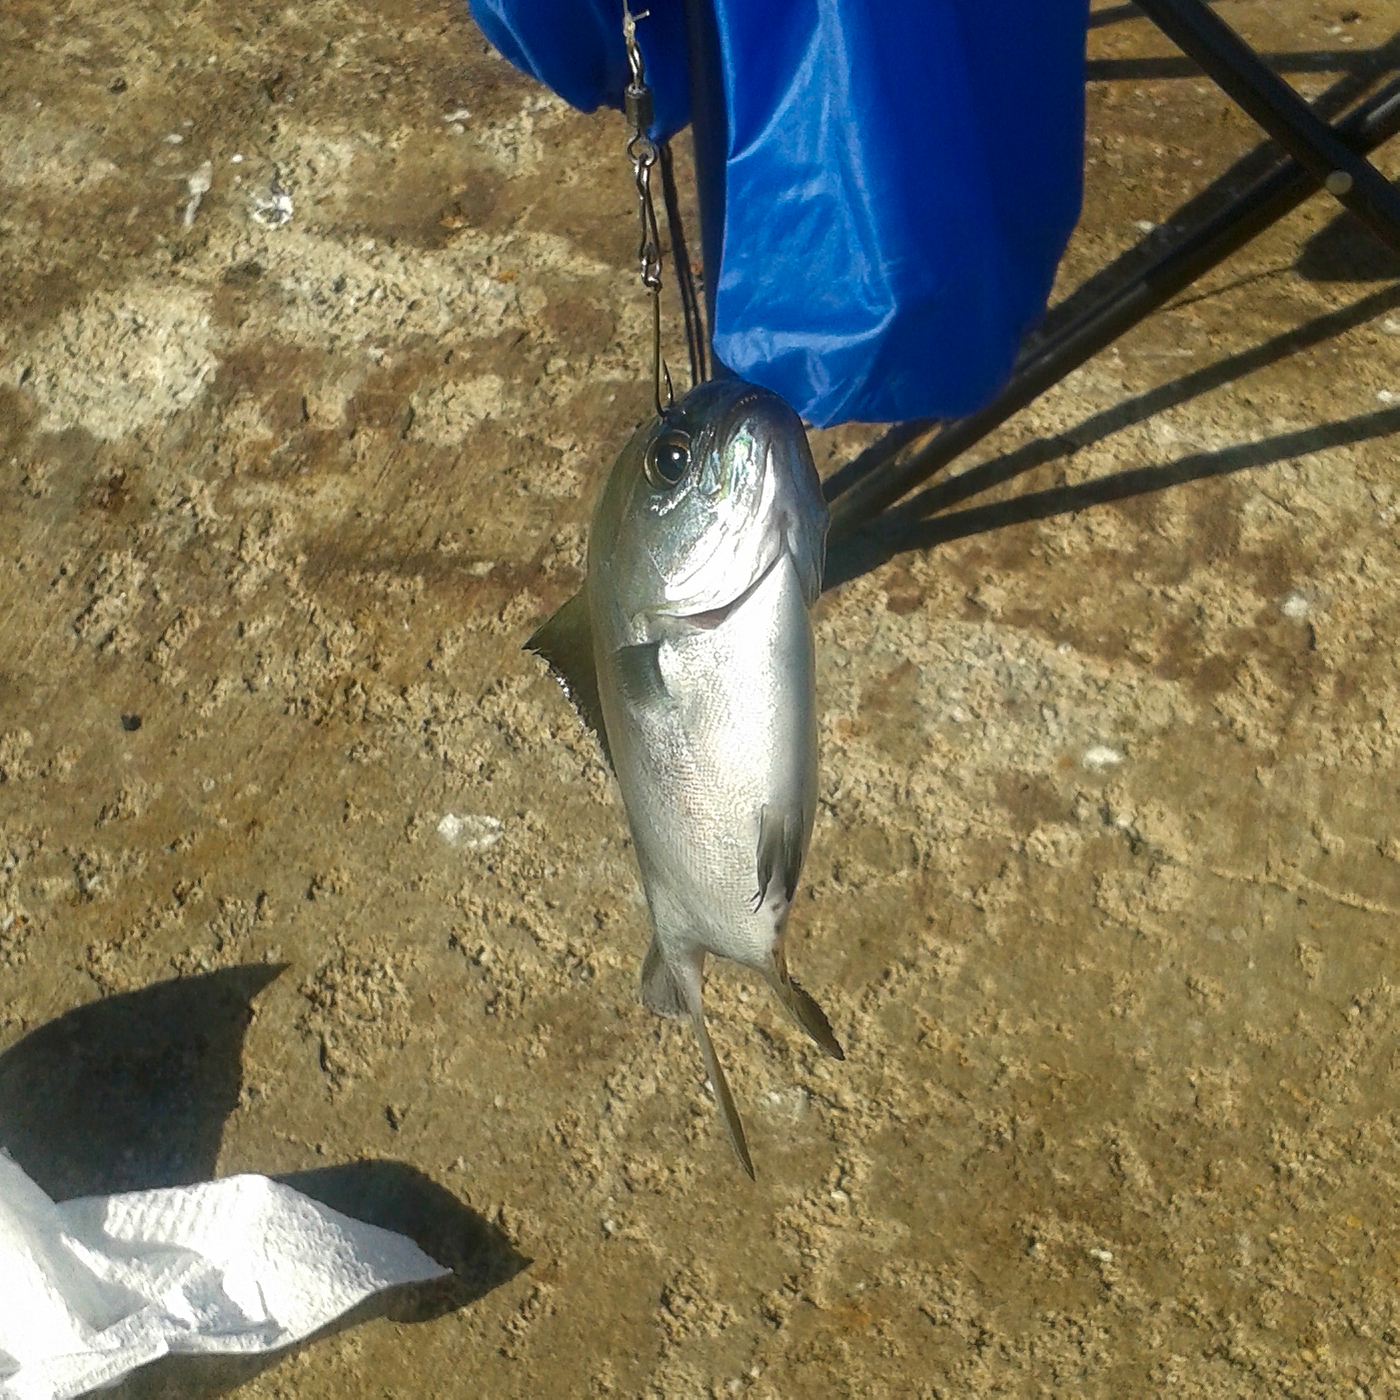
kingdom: Animalia
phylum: Chordata
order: Perciformes
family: Kyphosidae
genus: Scorpis
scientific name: Scorpis aequipinnis
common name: Sea sweep
